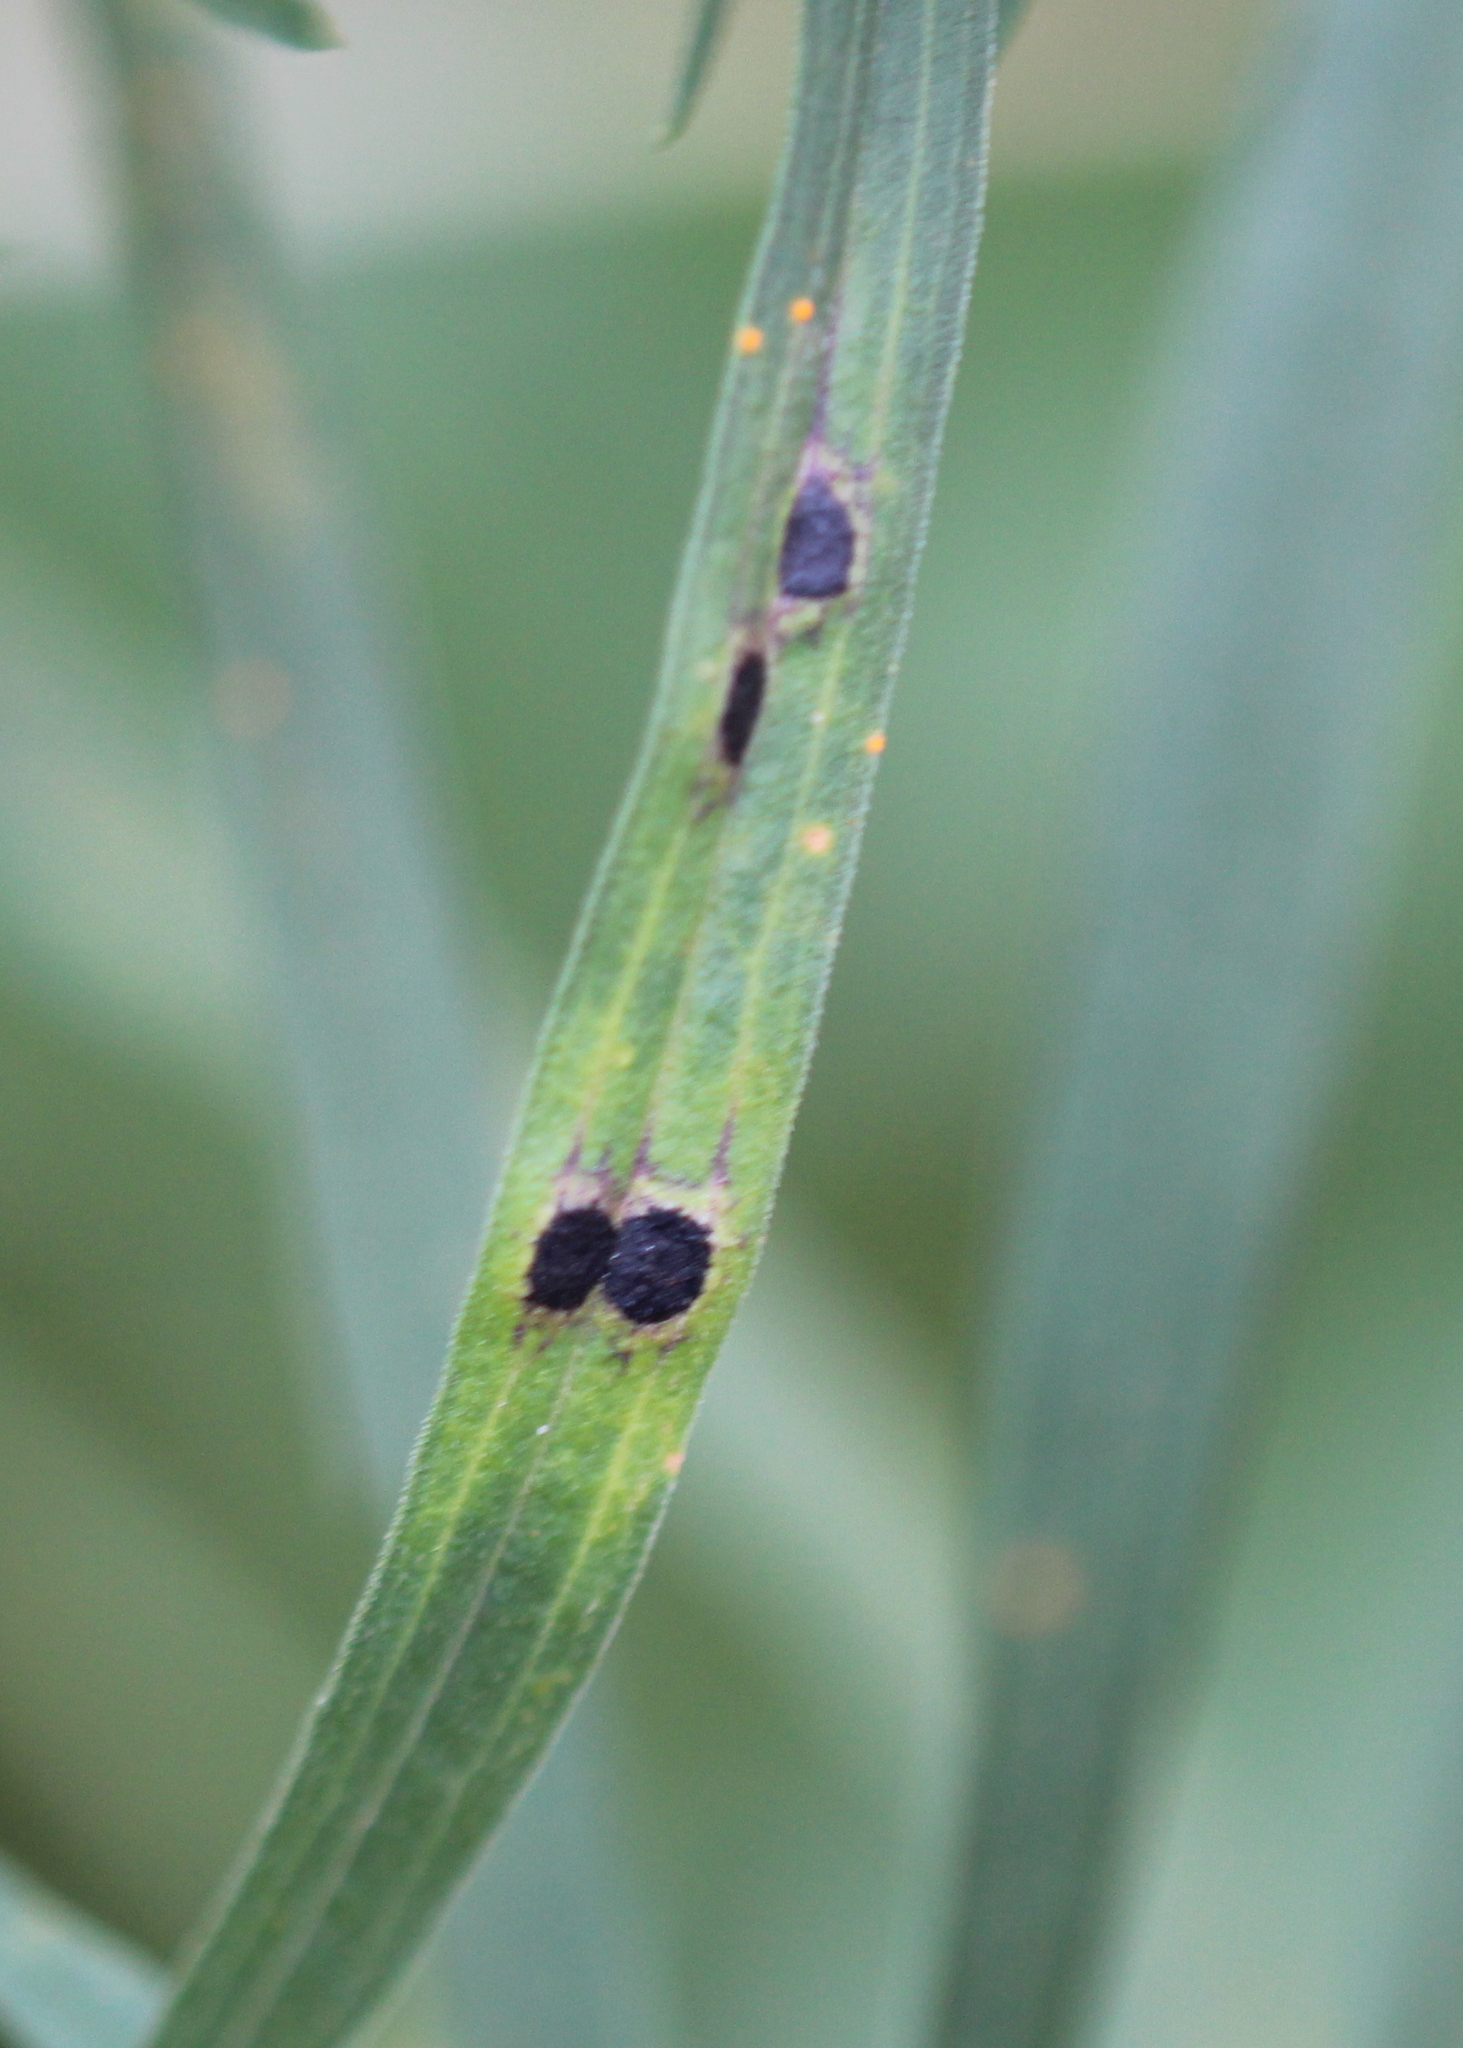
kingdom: Animalia
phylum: Arthropoda
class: Insecta
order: Diptera
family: Cecidomyiidae
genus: Asteromyia
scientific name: Asteromyia euthamiae
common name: Euthamia leaf gall midge
